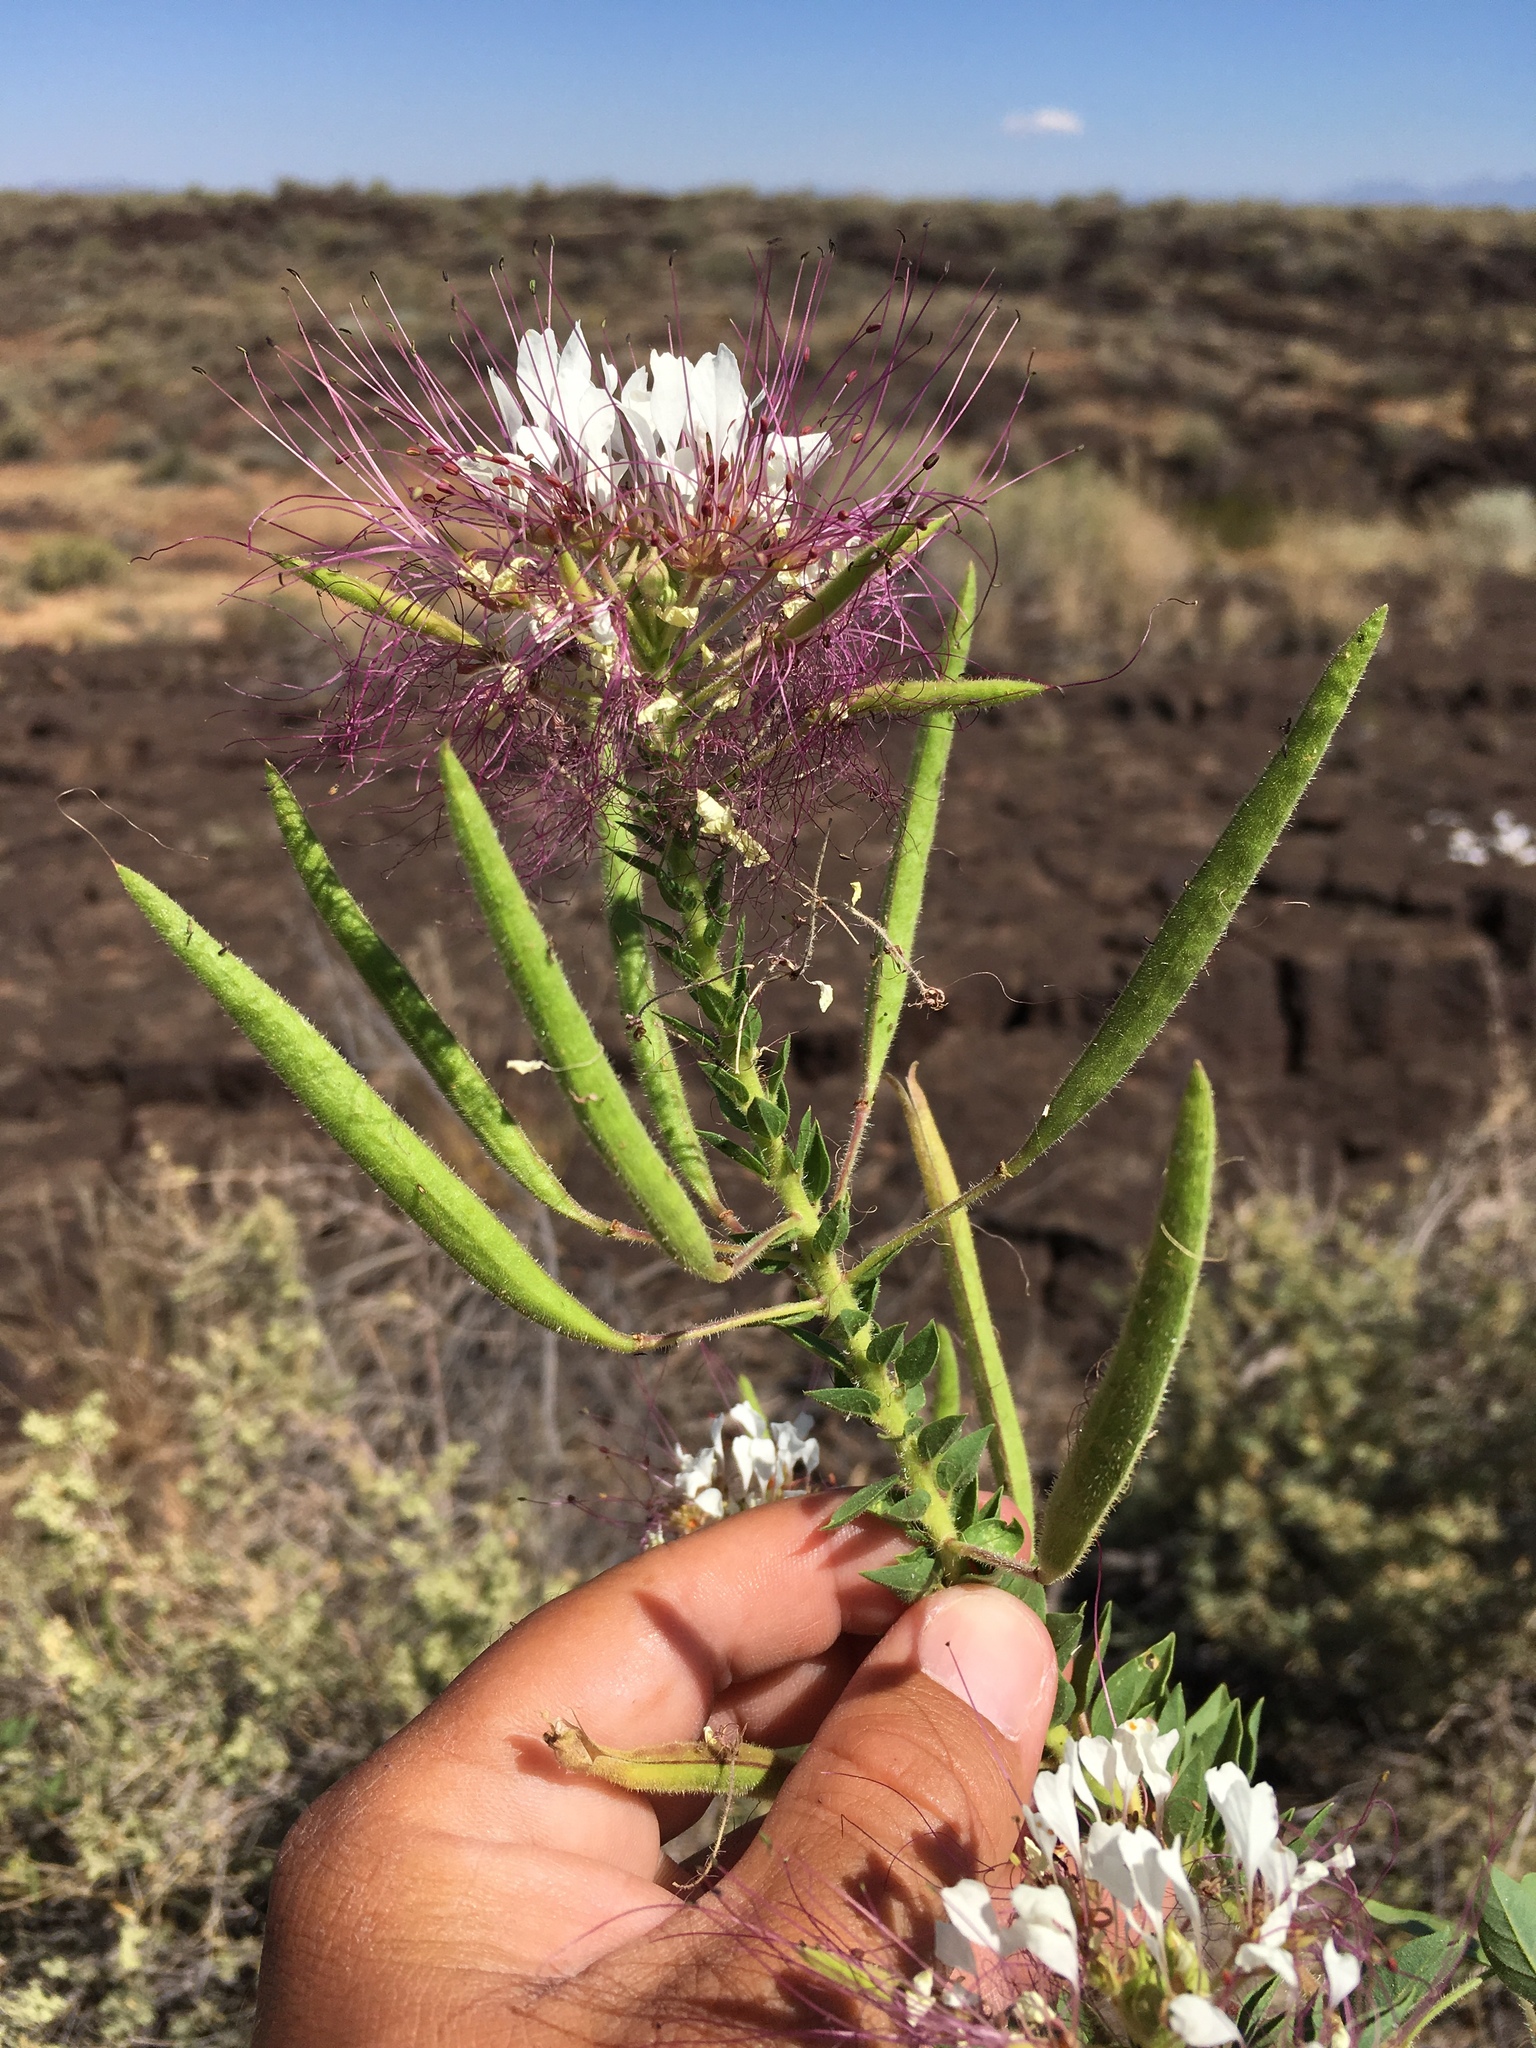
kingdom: Plantae
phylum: Tracheophyta
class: Magnoliopsida
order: Brassicales
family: Cleomaceae
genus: Polanisia
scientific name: Polanisia dodecandra
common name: Clammyweed
